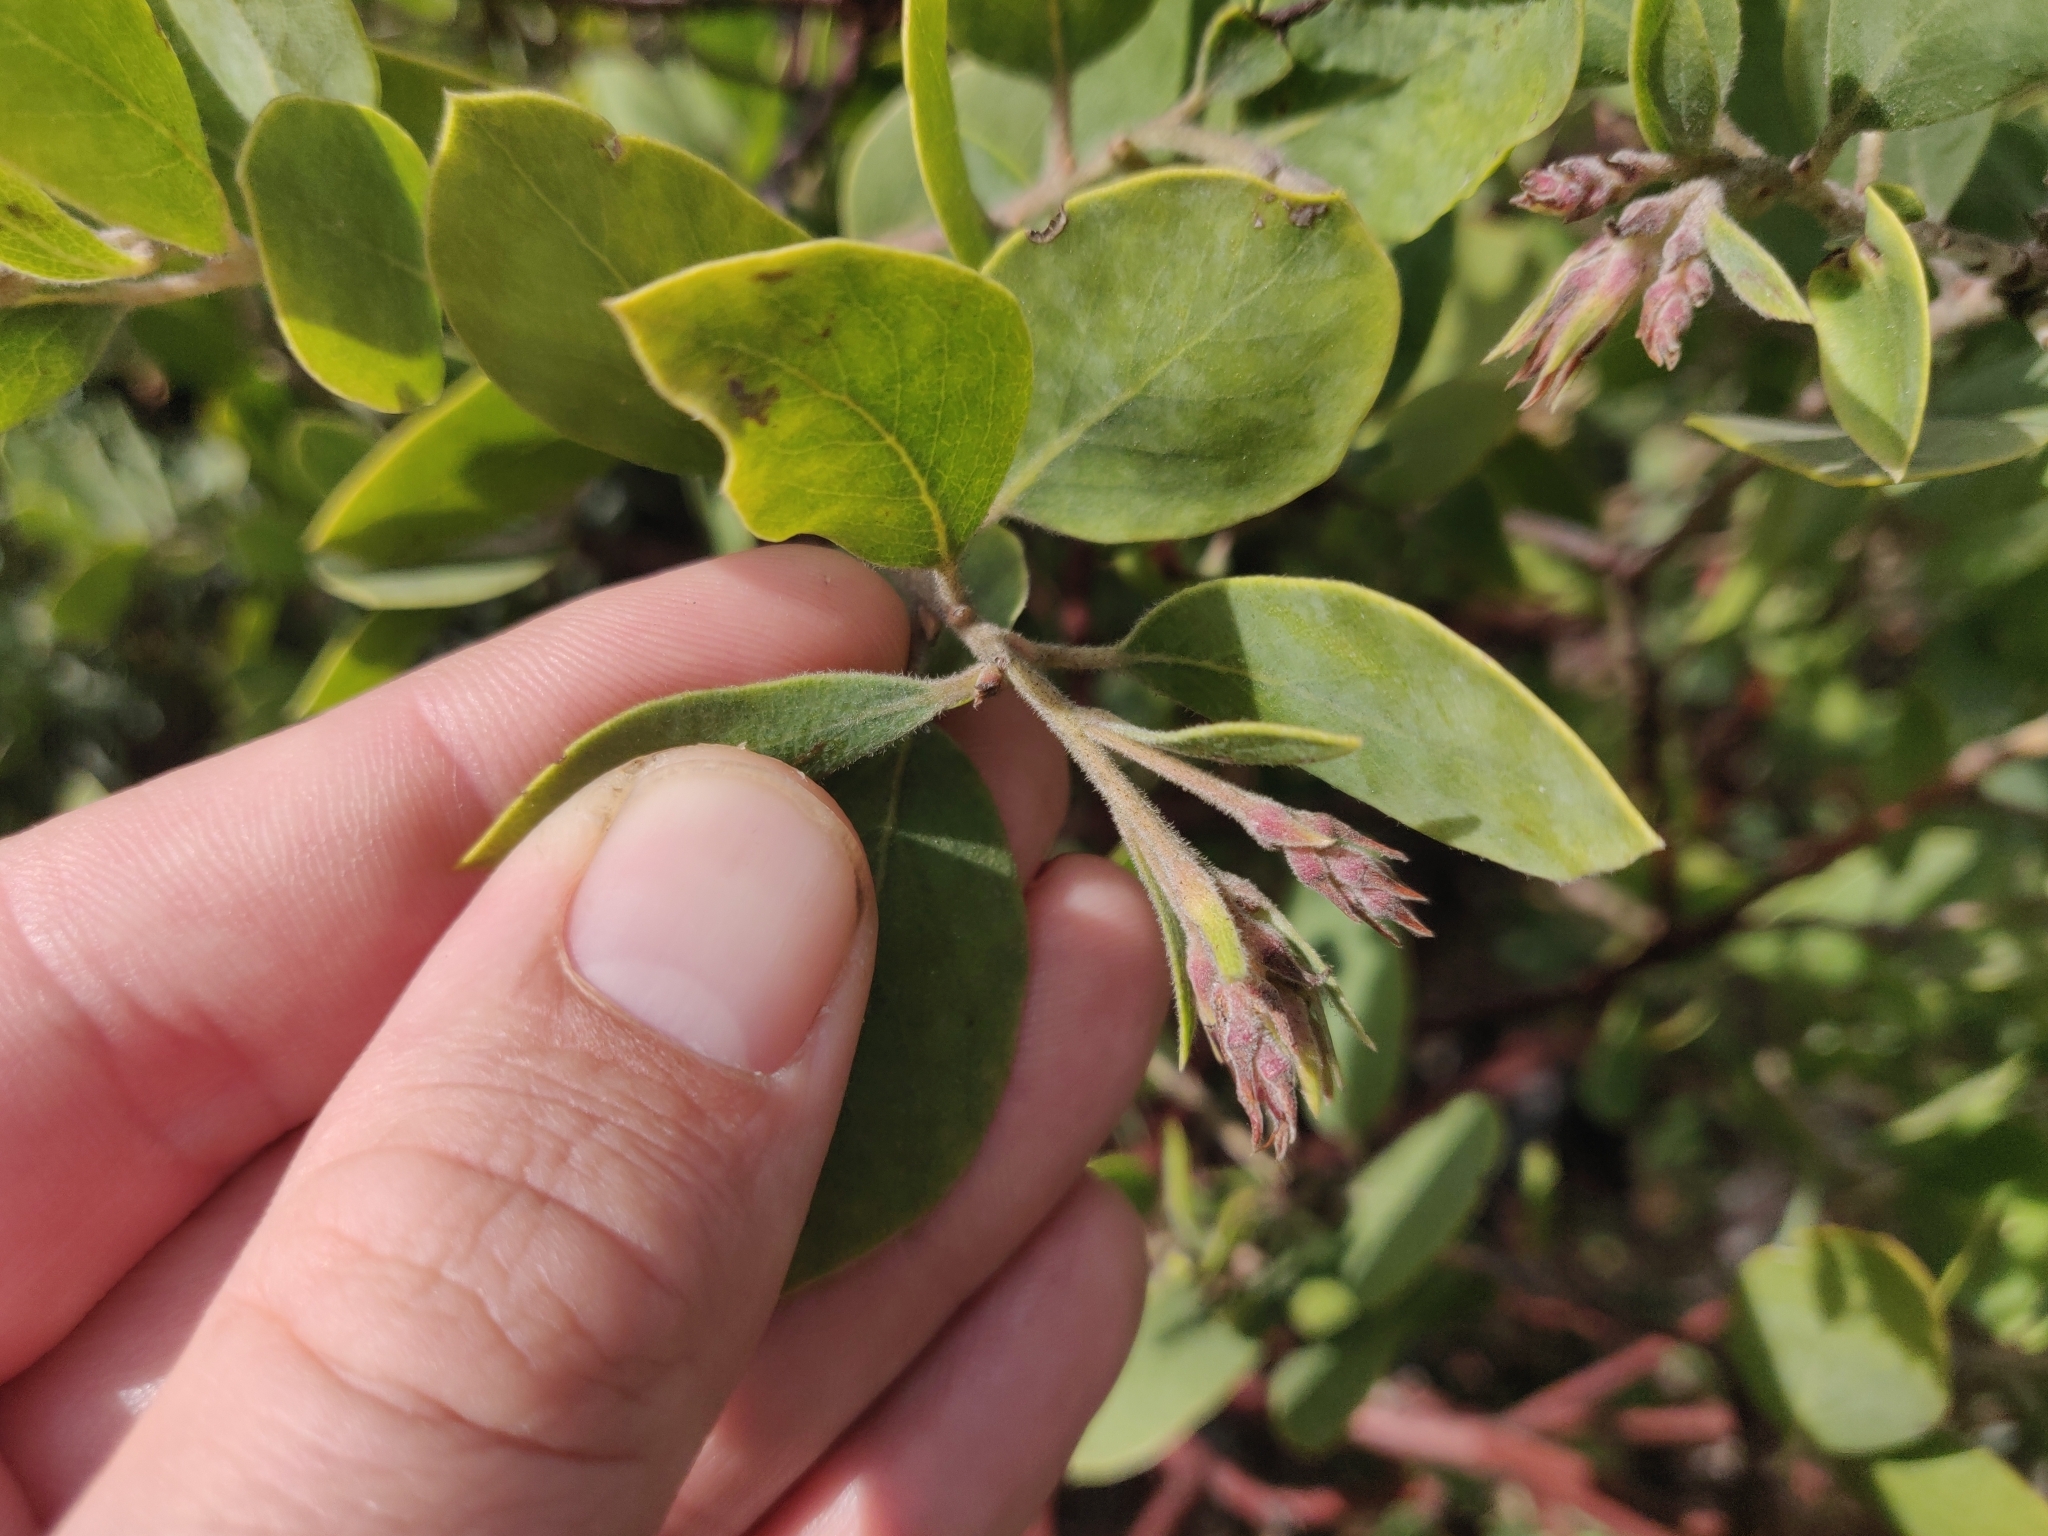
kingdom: Plantae
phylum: Tracheophyta
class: Magnoliopsida
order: Ericales
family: Ericaceae
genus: Arctostaphylos
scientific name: Arctostaphylos glandulosa
